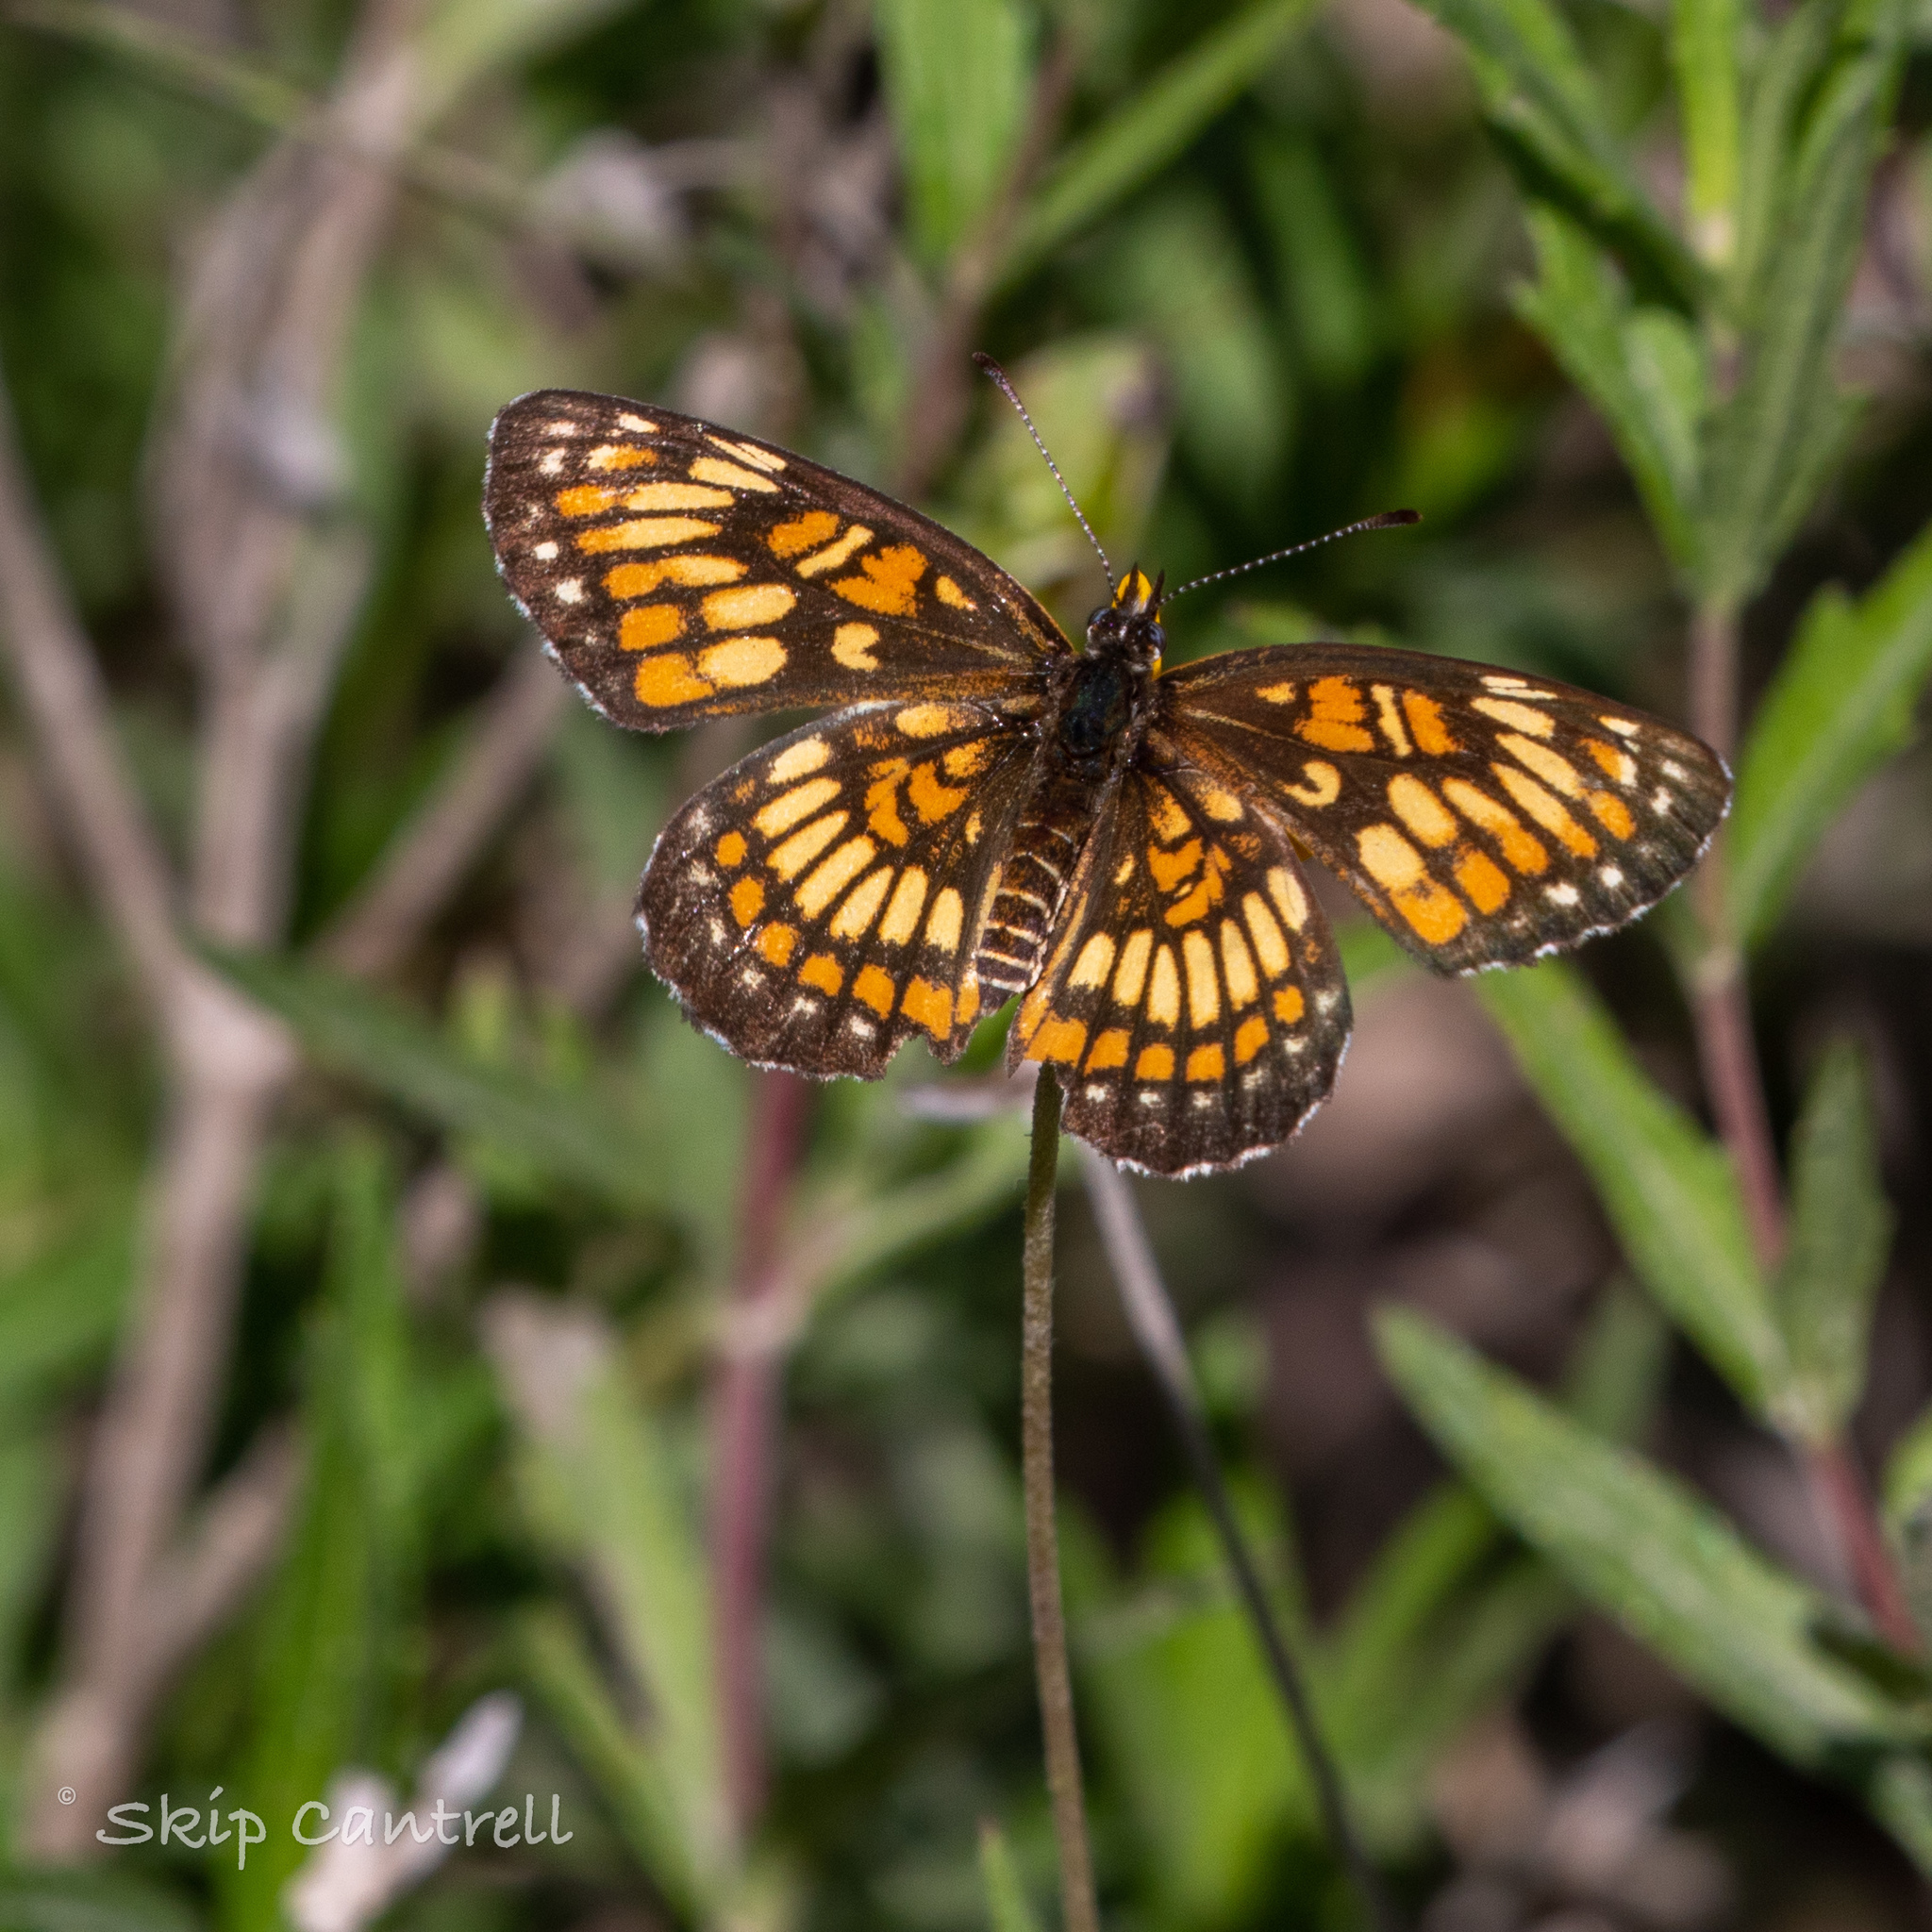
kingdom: Animalia
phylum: Arthropoda
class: Insecta
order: Lepidoptera
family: Nymphalidae
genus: Thessalia
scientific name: Thessalia theona
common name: Nymphalid moth
